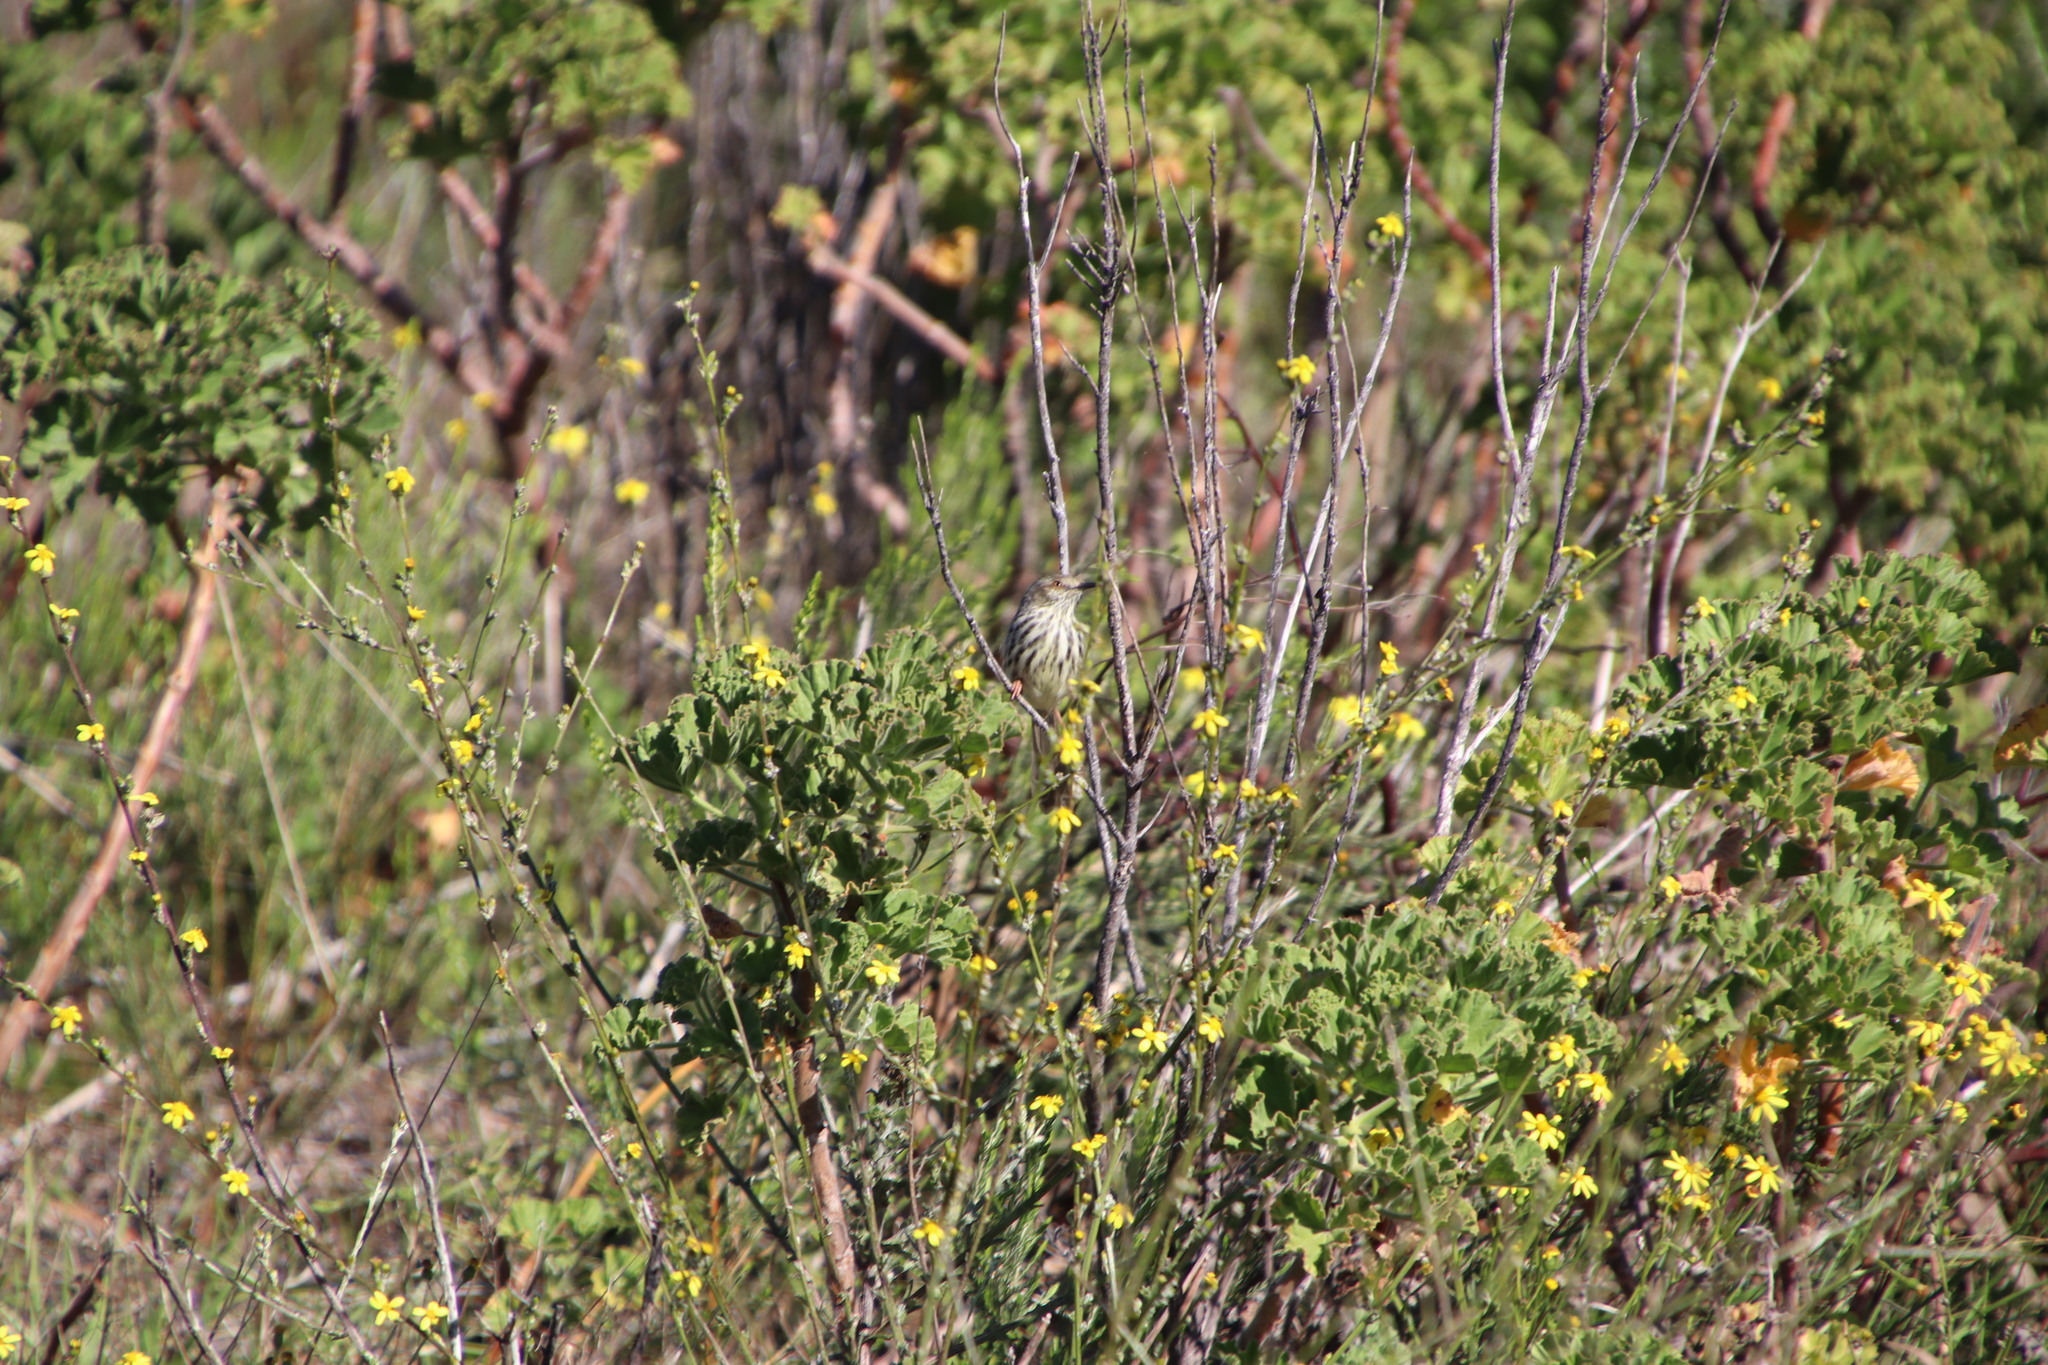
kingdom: Animalia
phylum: Chordata
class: Aves
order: Passeriformes
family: Cisticolidae
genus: Prinia
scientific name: Prinia maculosa
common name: Karoo prinia
